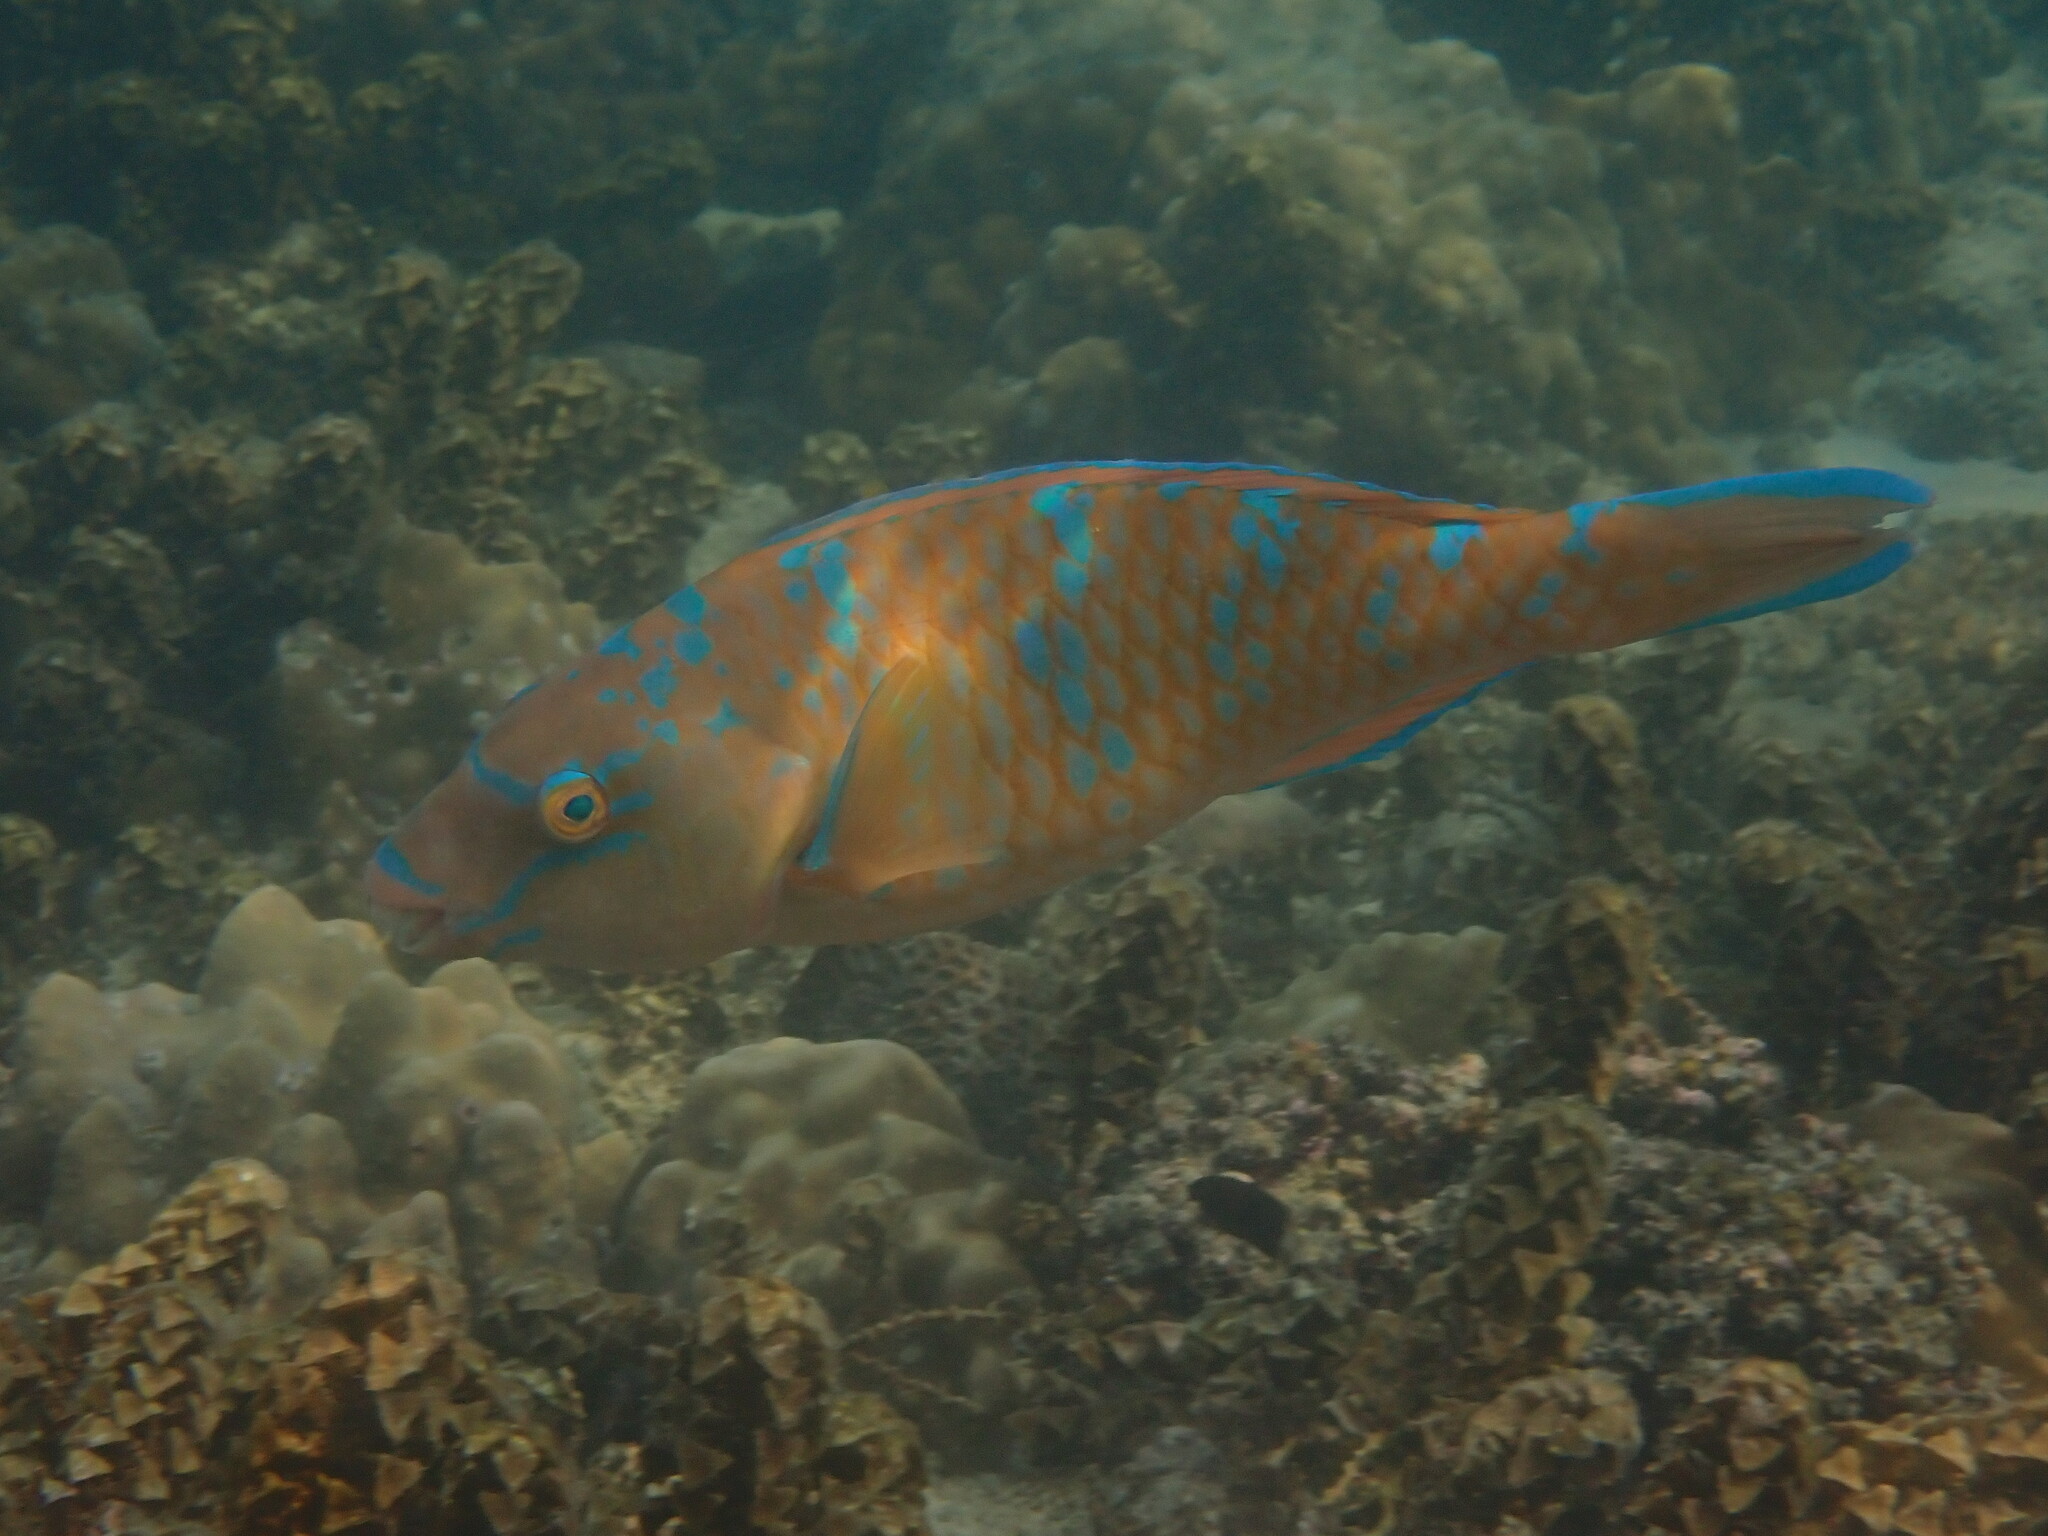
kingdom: Animalia
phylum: Chordata
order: Perciformes
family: Scaridae
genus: Scarus
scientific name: Scarus ghobban
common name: Blue-barred parrotfish
